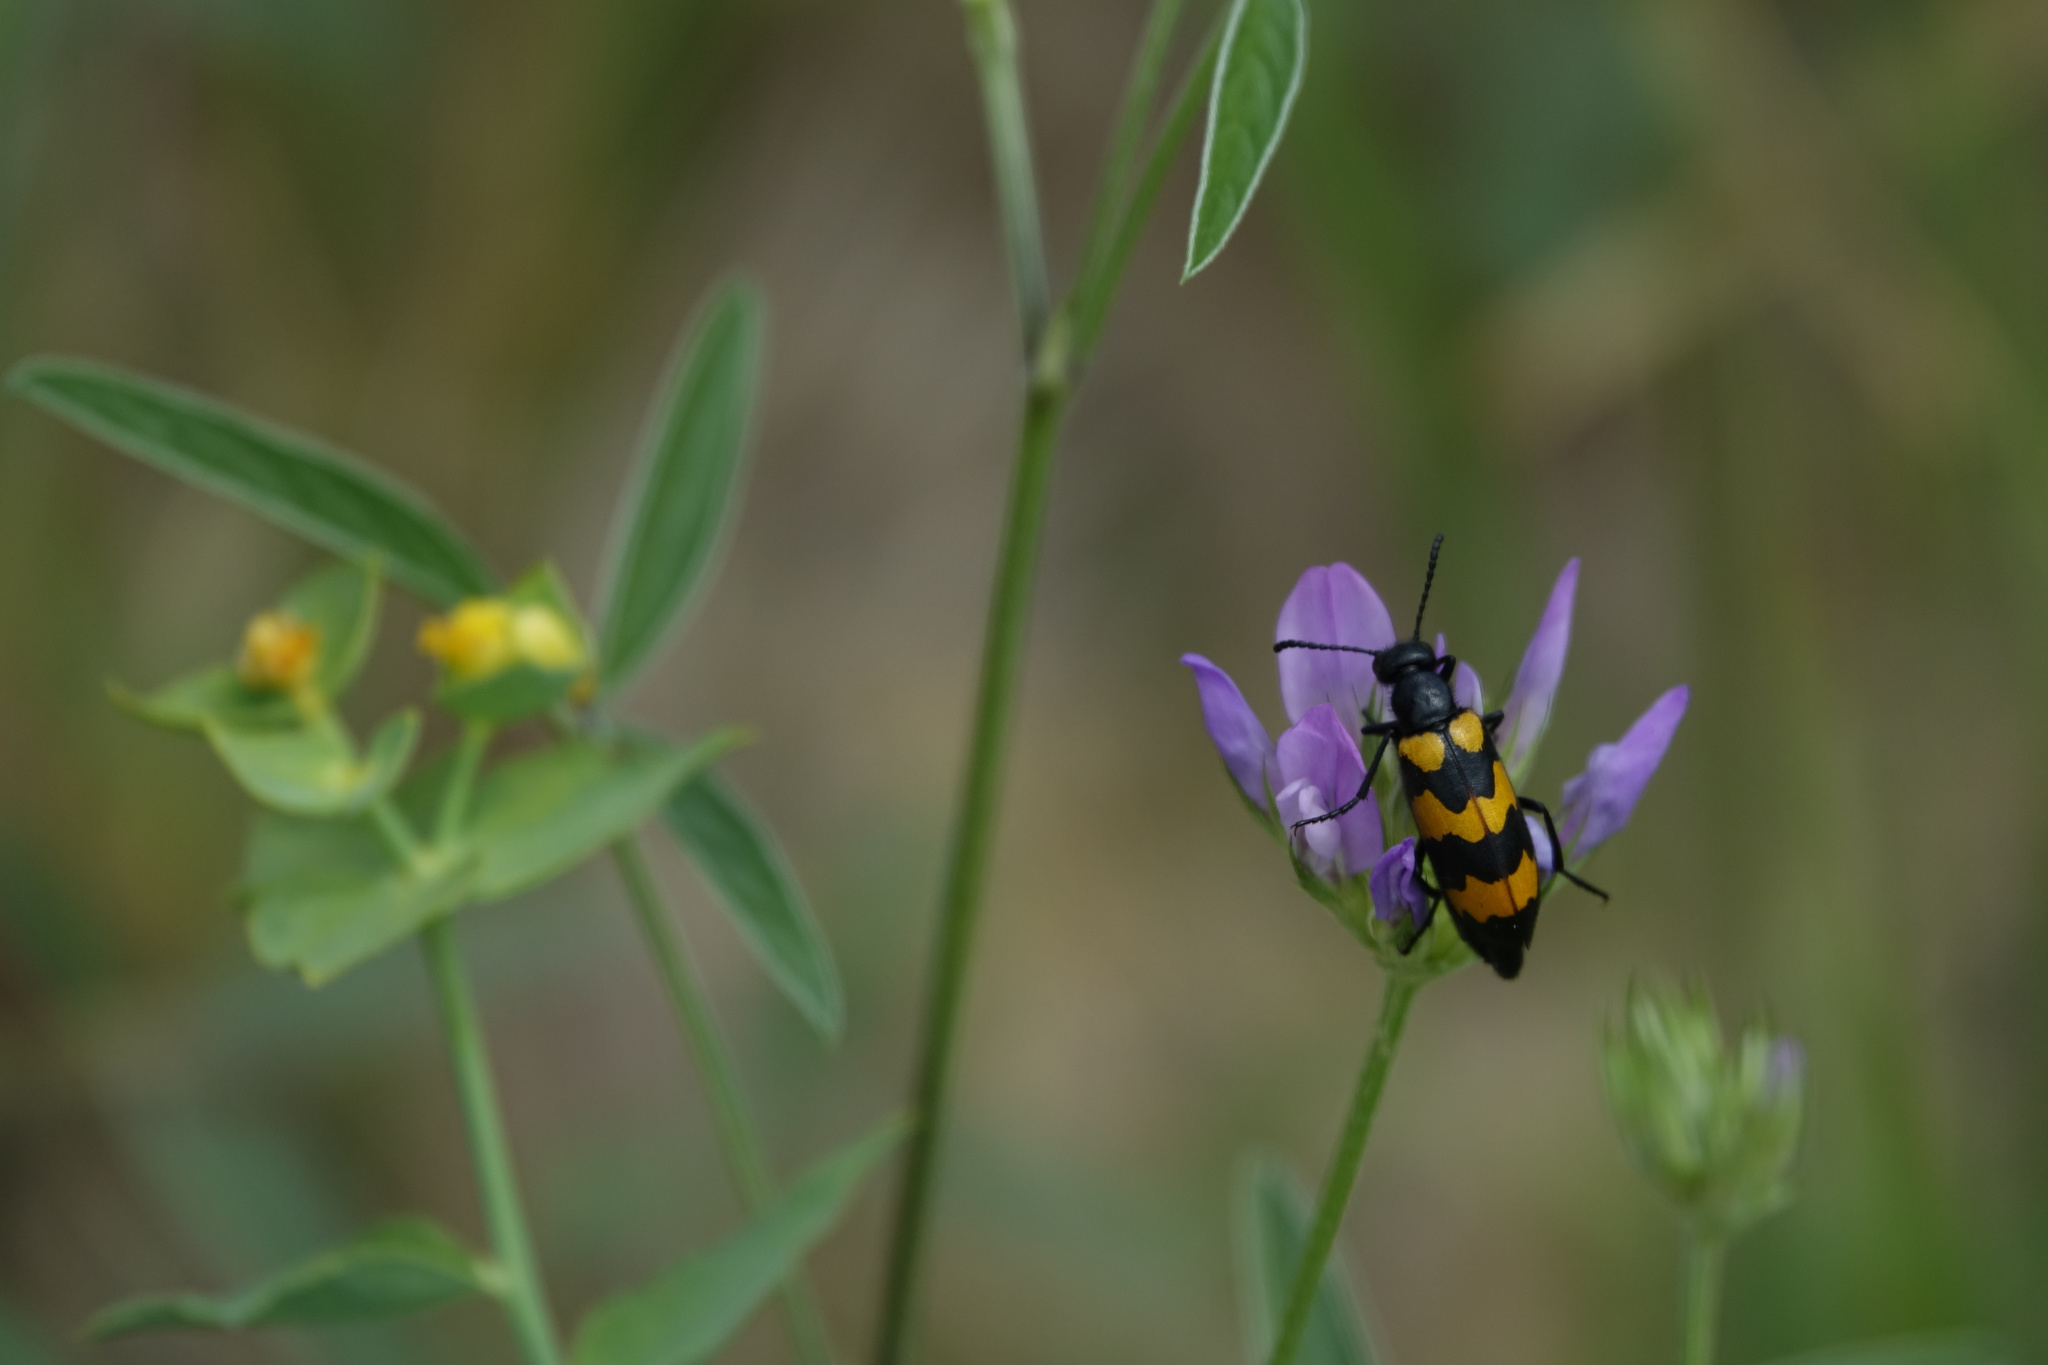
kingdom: Animalia
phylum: Arthropoda
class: Insecta
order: Coleoptera
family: Meloidae
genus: Mylabris
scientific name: Mylabris variabilis
